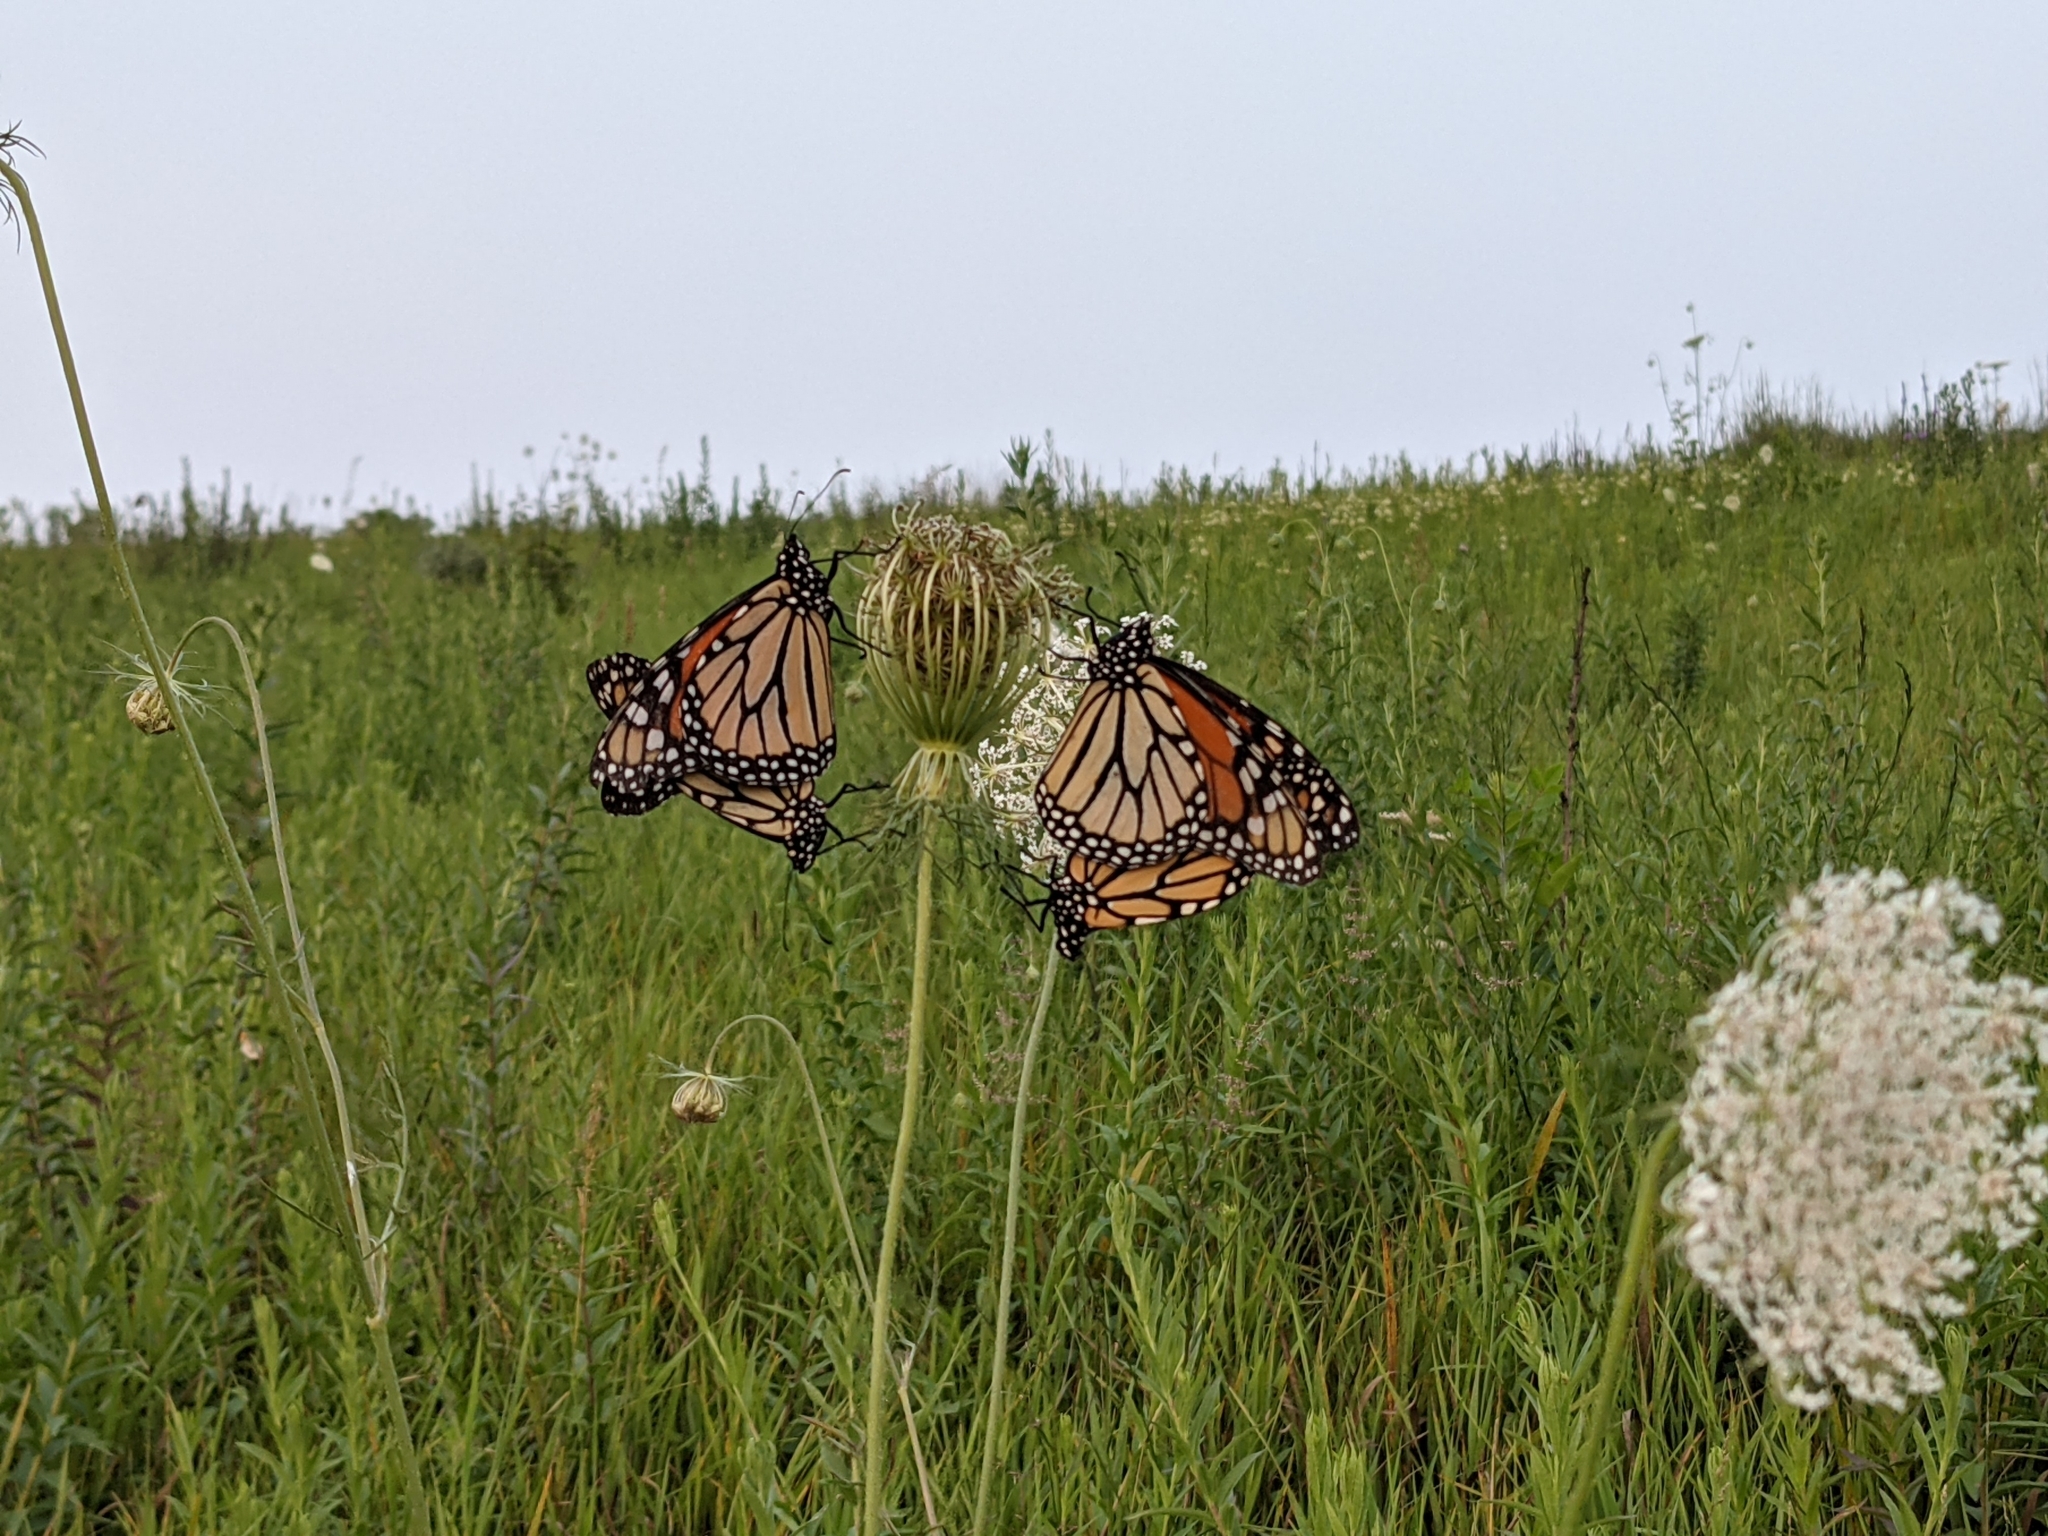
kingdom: Animalia
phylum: Arthropoda
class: Insecta
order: Lepidoptera
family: Nymphalidae
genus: Danaus
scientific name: Danaus plexippus
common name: Monarch
